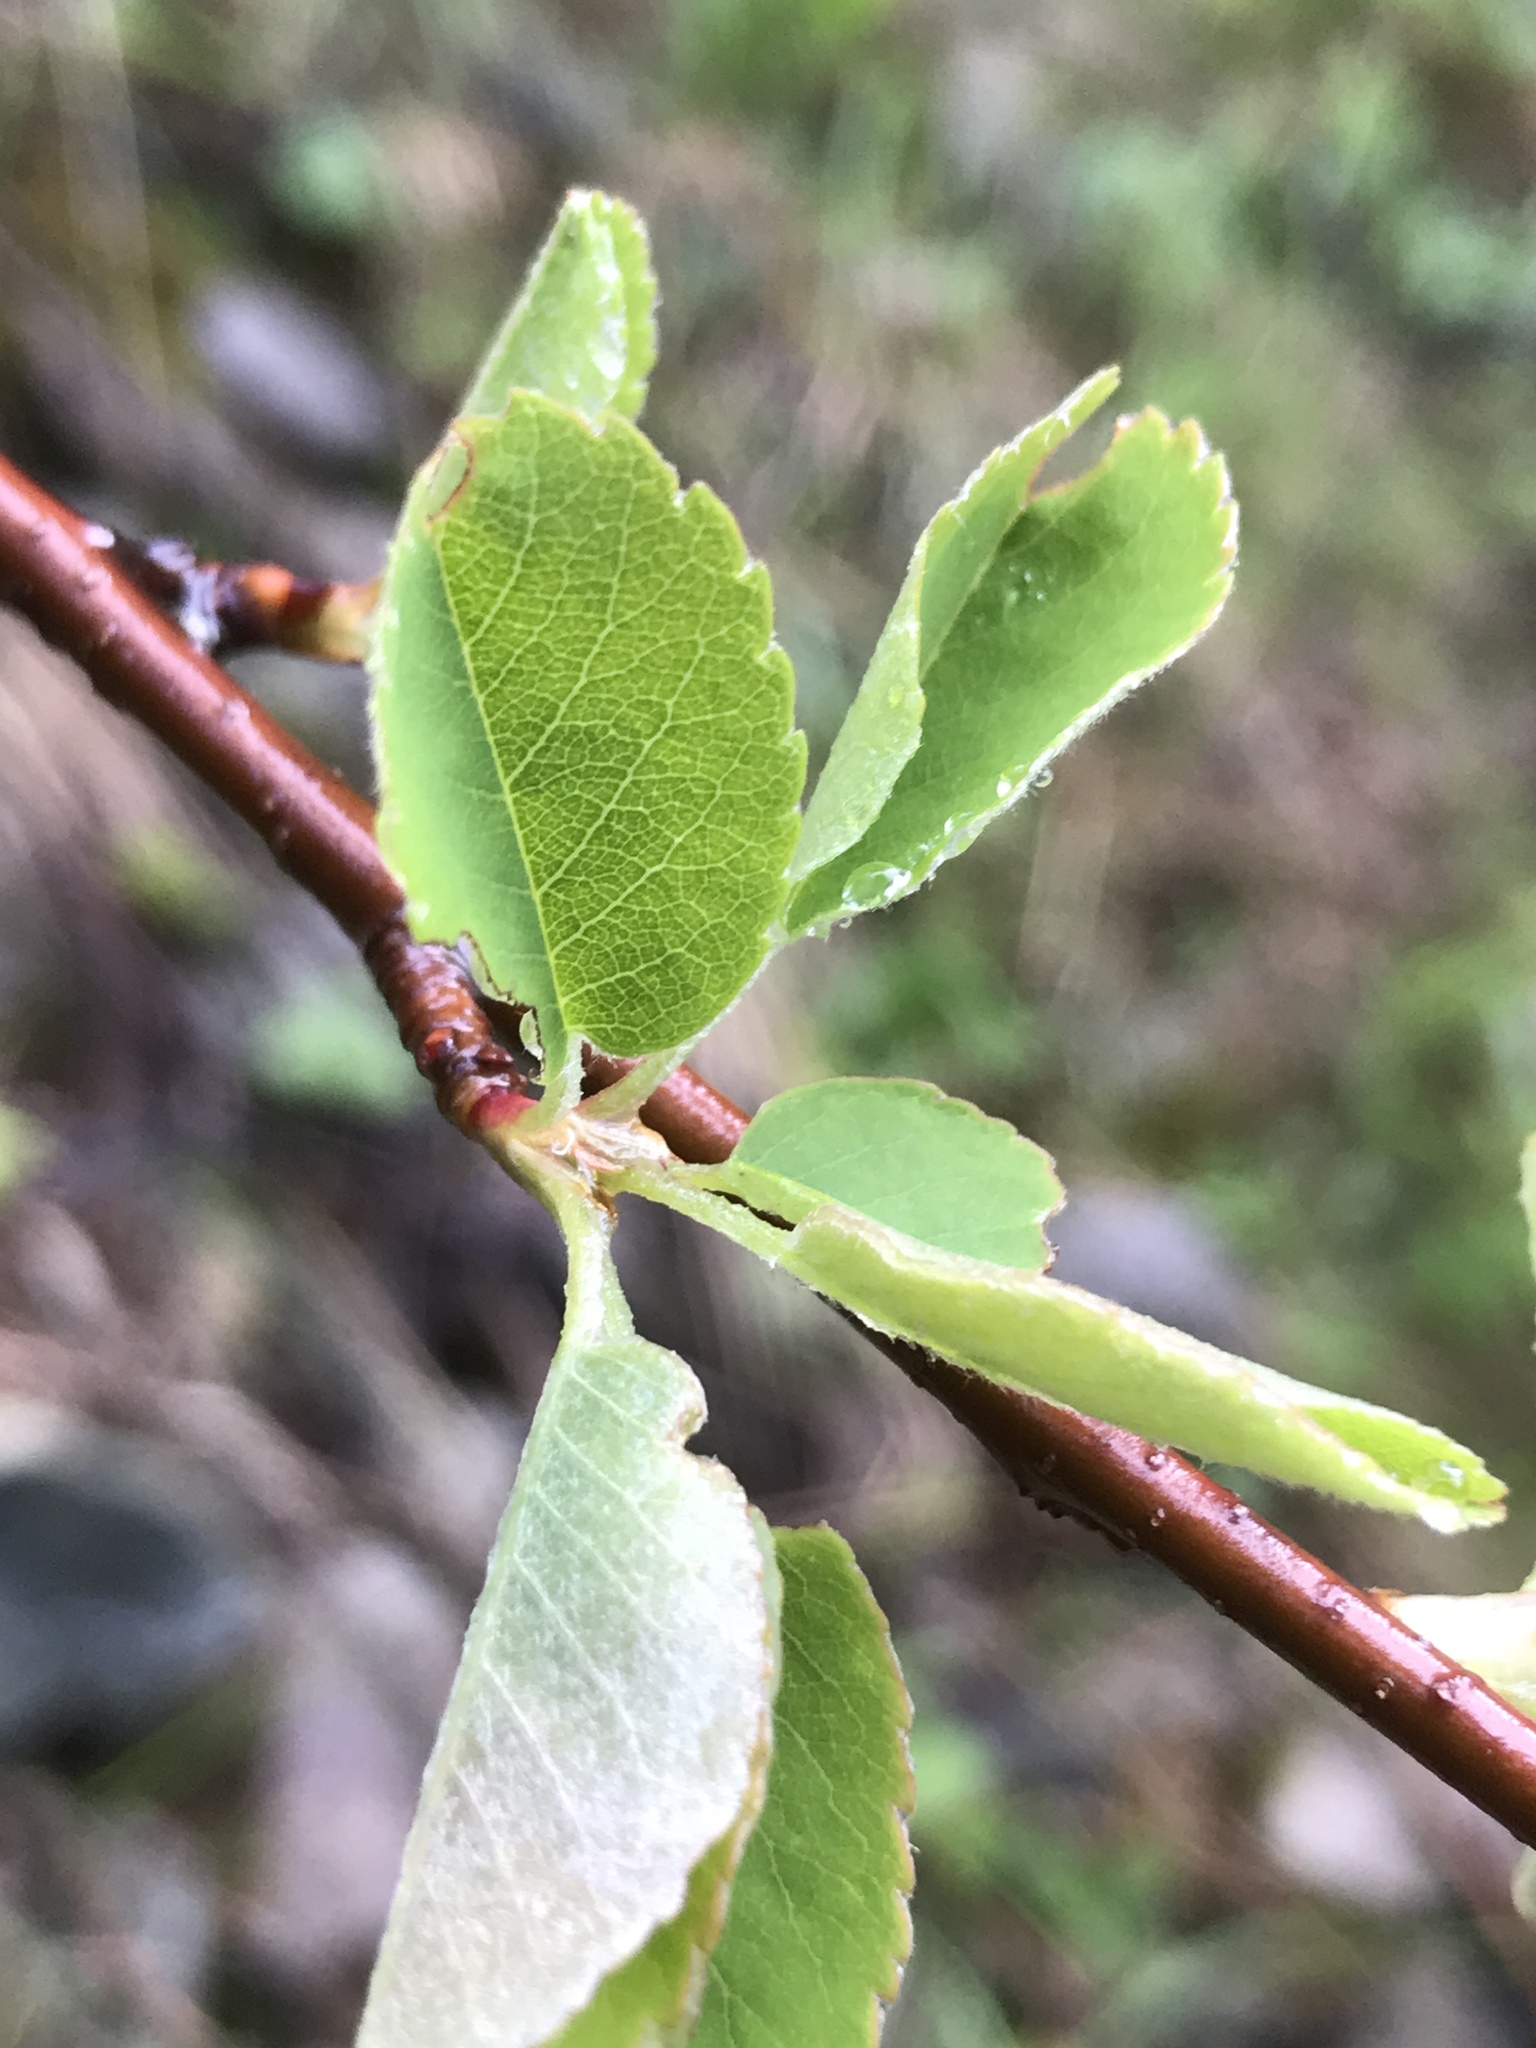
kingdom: Plantae
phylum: Tracheophyta
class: Magnoliopsida
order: Rosales
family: Rosaceae
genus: Amelanchier
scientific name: Amelanchier ovalis
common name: Serviceberry
